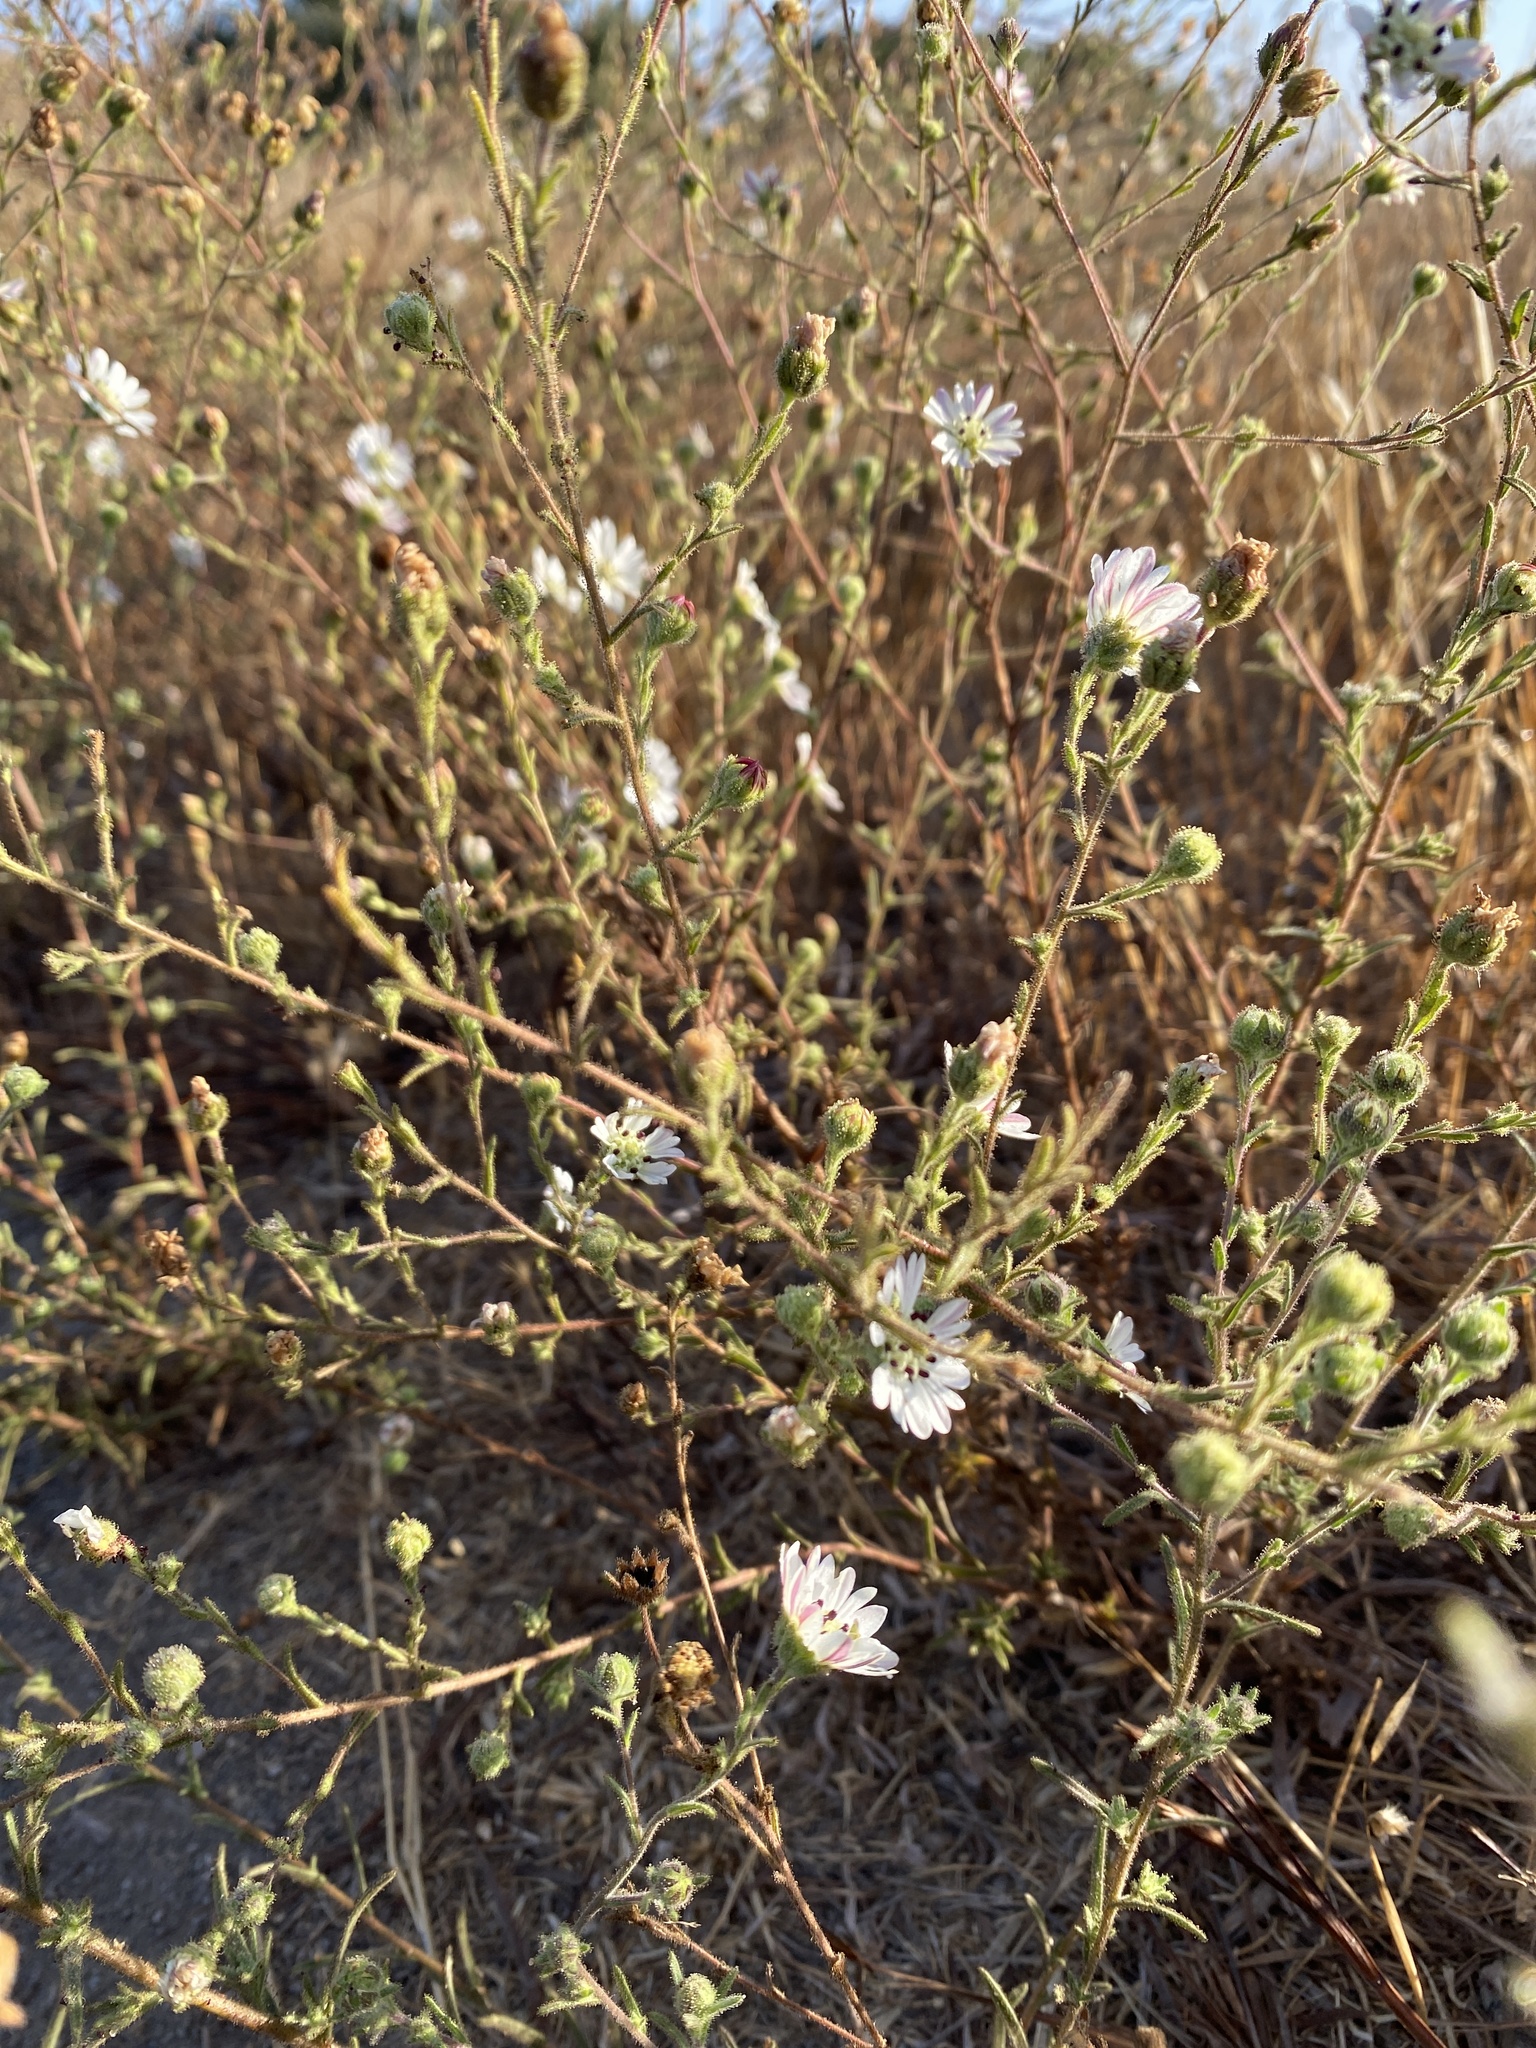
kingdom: Plantae
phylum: Tracheophyta
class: Magnoliopsida
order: Asterales
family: Asteraceae
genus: Hemizonia
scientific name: Hemizonia congesta
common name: Hayfield tarweed
